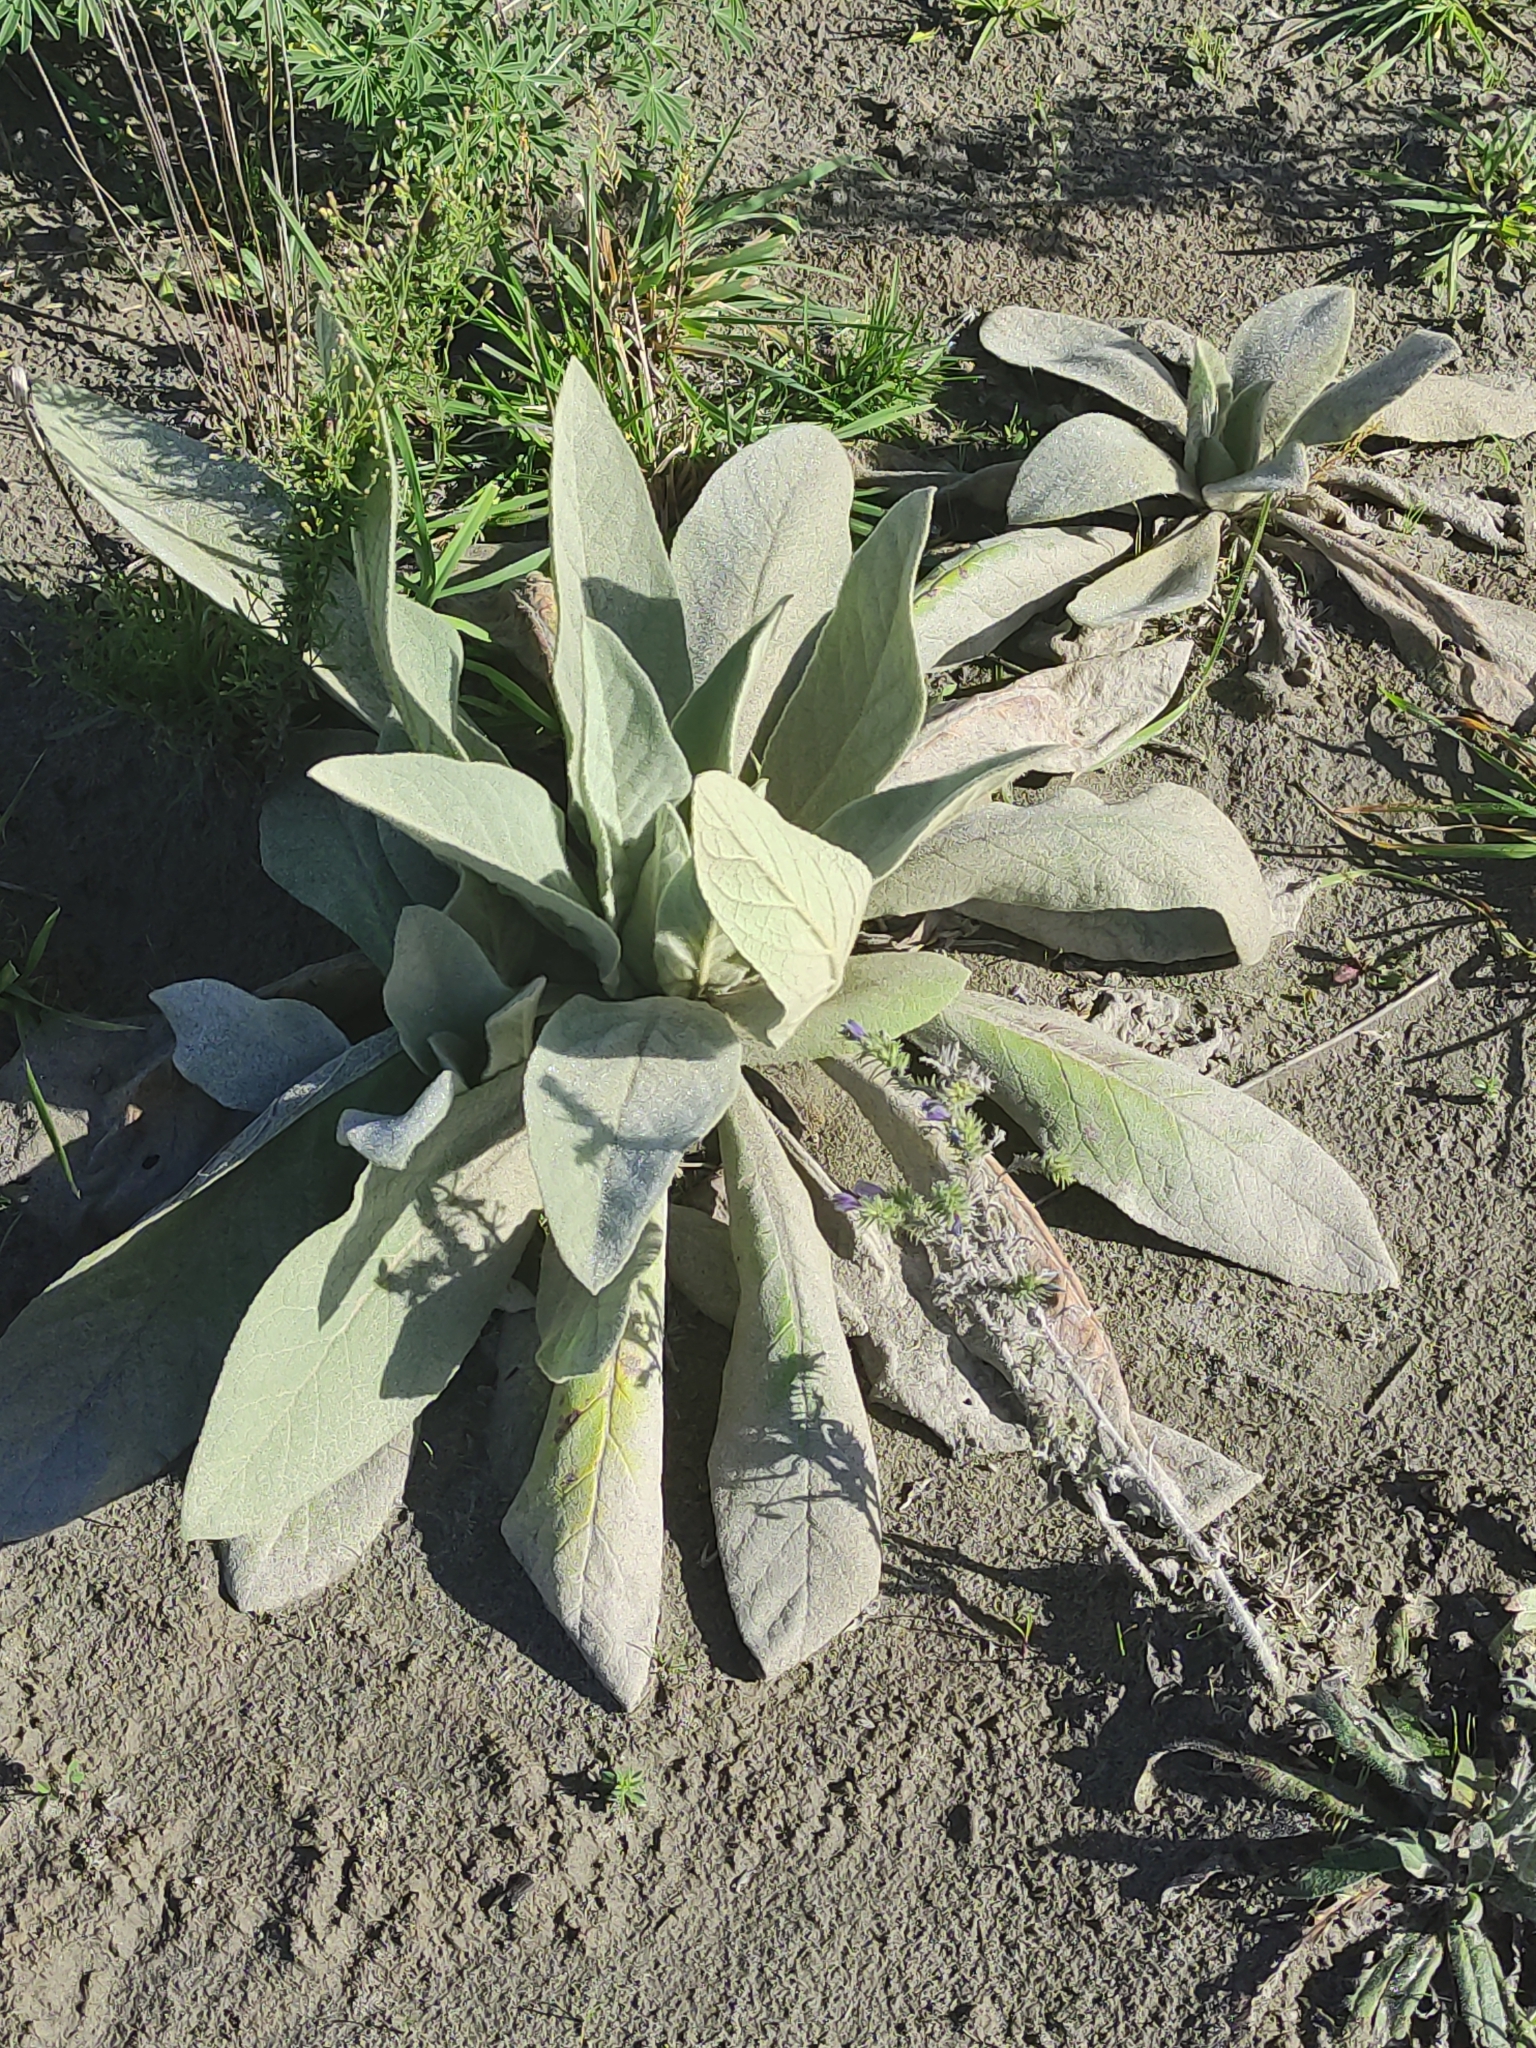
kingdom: Plantae
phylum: Tracheophyta
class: Magnoliopsida
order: Lamiales
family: Scrophulariaceae
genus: Verbascum
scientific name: Verbascum thapsus
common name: Common mullein
